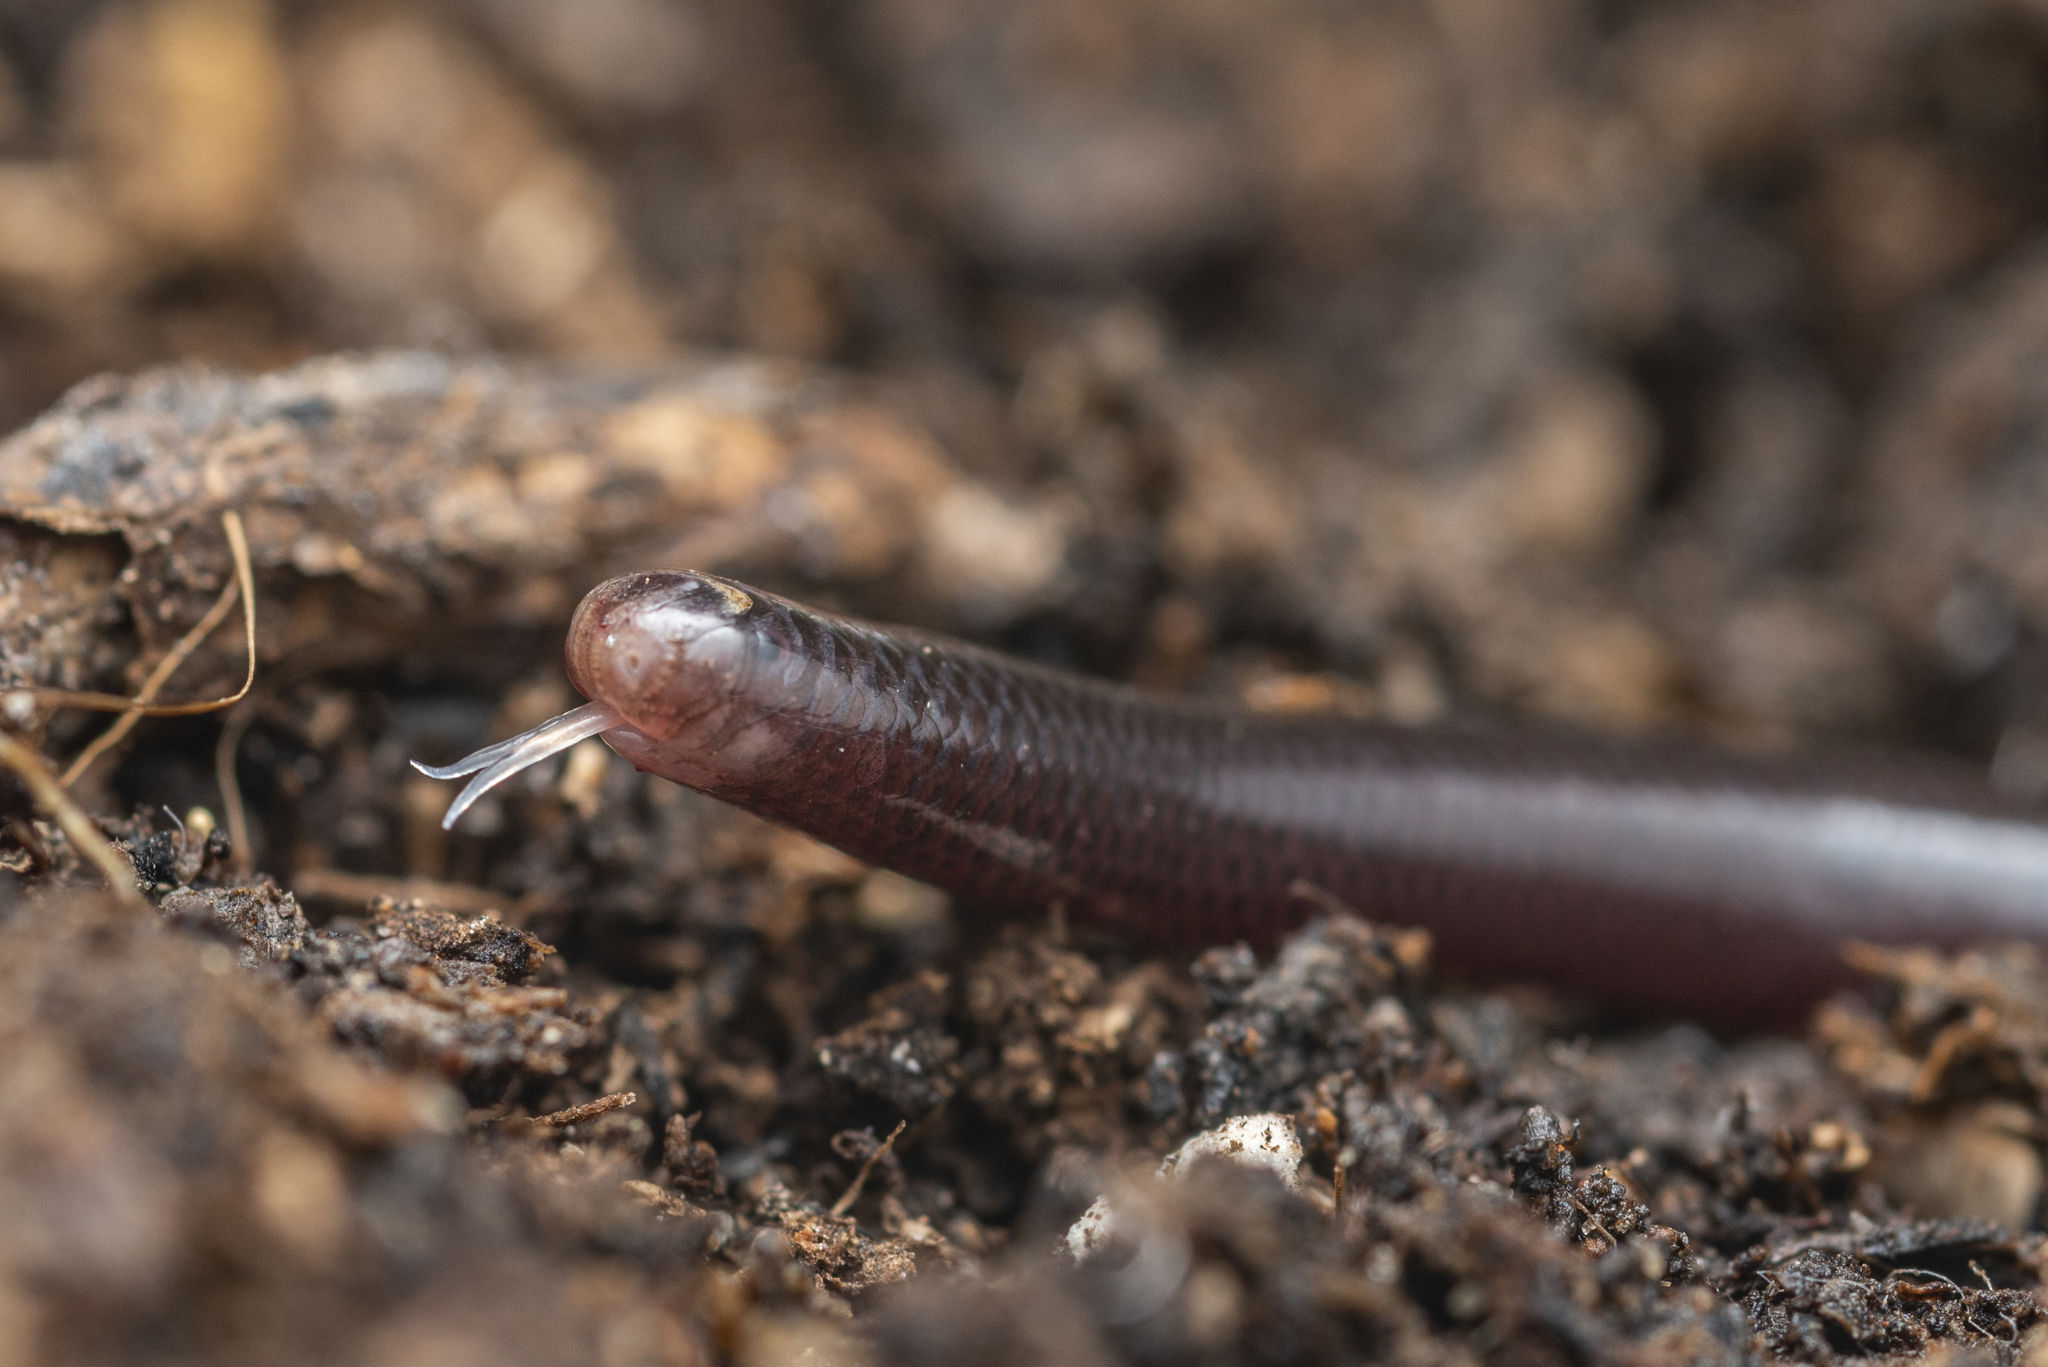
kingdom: Animalia
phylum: Chordata
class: Squamata
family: Typhlopidae
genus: Indotyphlops
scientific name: Indotyphlops braminus
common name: Brahminy blindsnake
